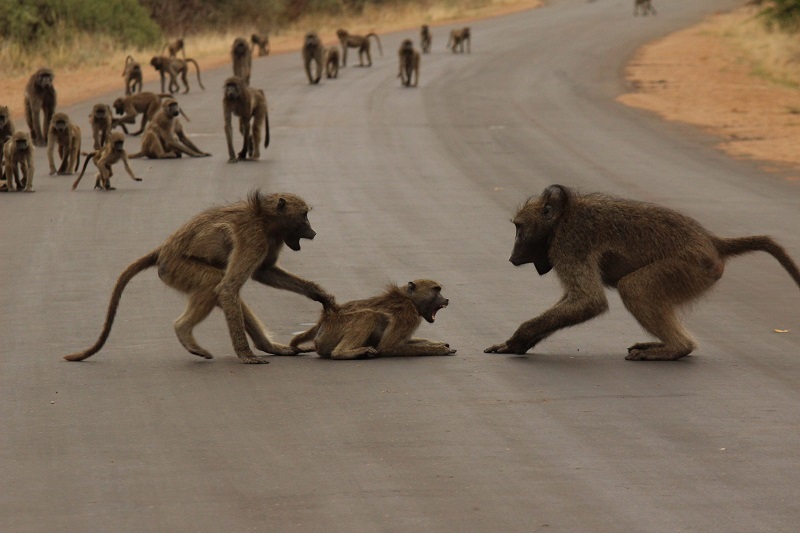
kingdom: Animalia
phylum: Chordata
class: Mammalia
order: Primates
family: Cercopithecidae
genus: Papio
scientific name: Papio ursinus
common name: Chacma baboon
